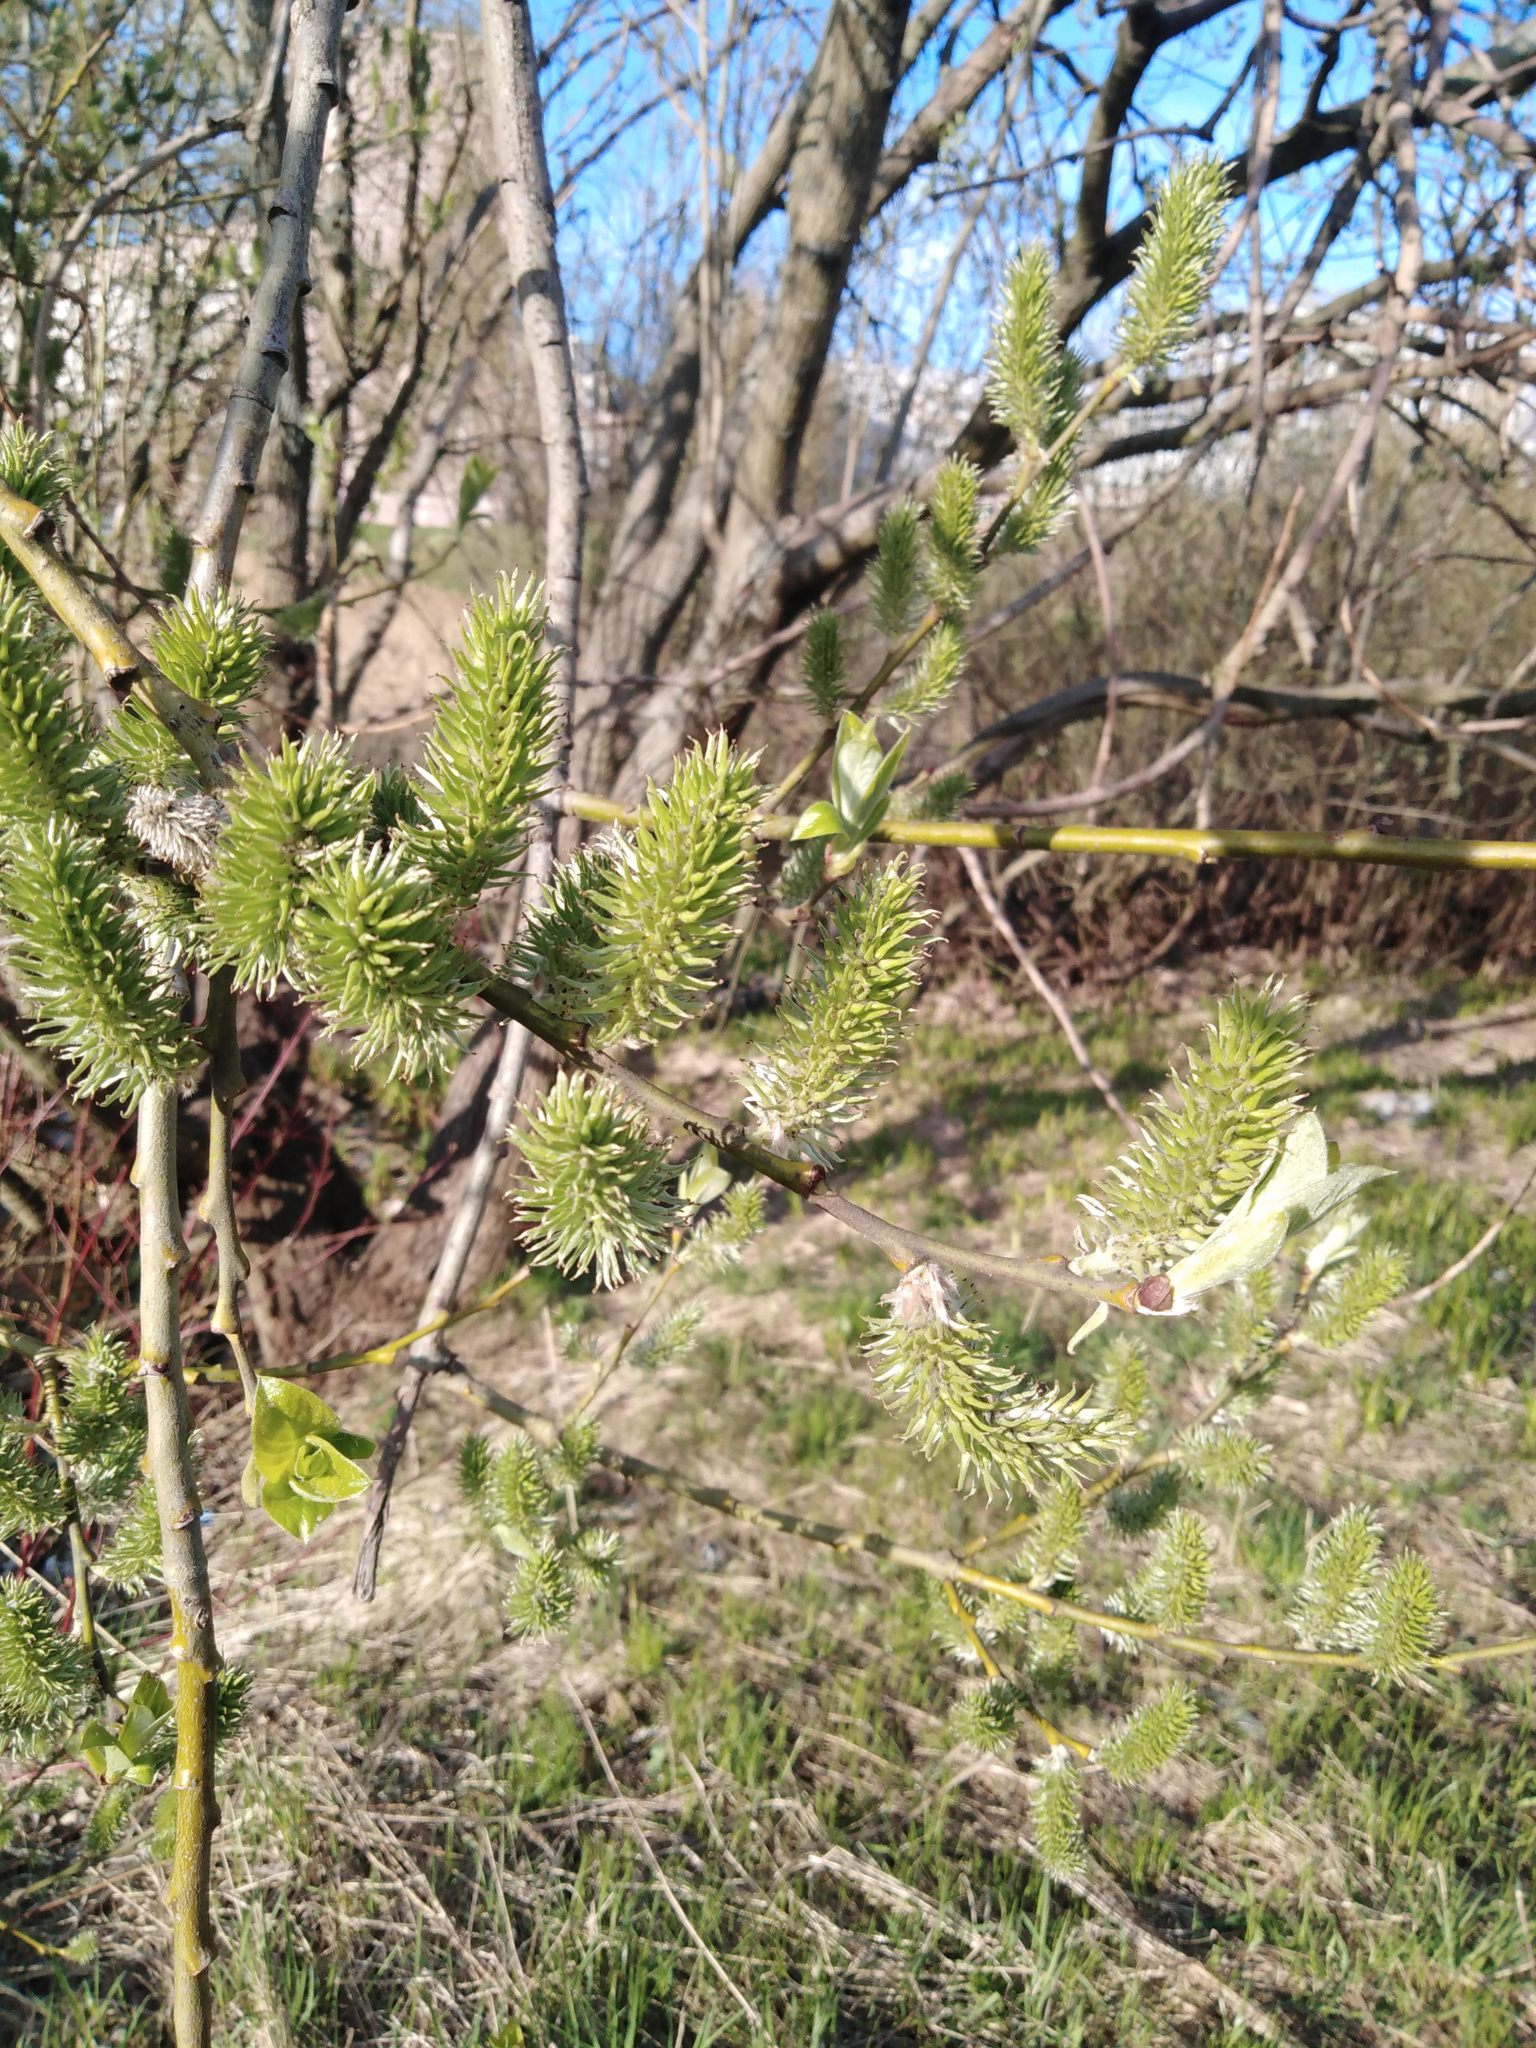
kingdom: Plantae
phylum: Tracheophyta
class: Magnoliopsida
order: Malpighiales
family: Salicaceae
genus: Salix
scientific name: Salix caprea
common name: Goat willow
